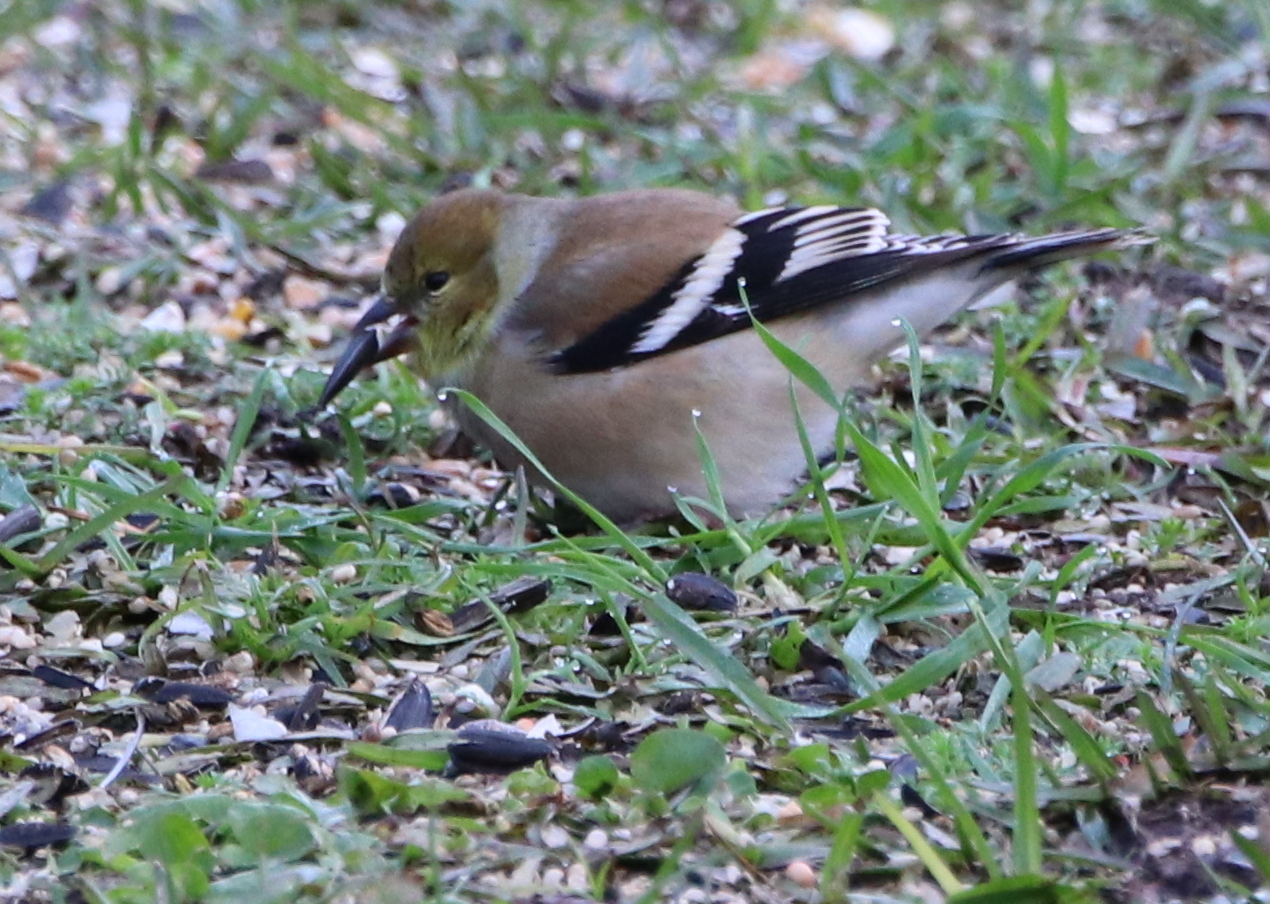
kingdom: Animalia
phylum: Chordata
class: Aves
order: Passeriformes
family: Fringillidae
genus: Spinus
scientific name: Spinus tristis
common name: American goldfinch
